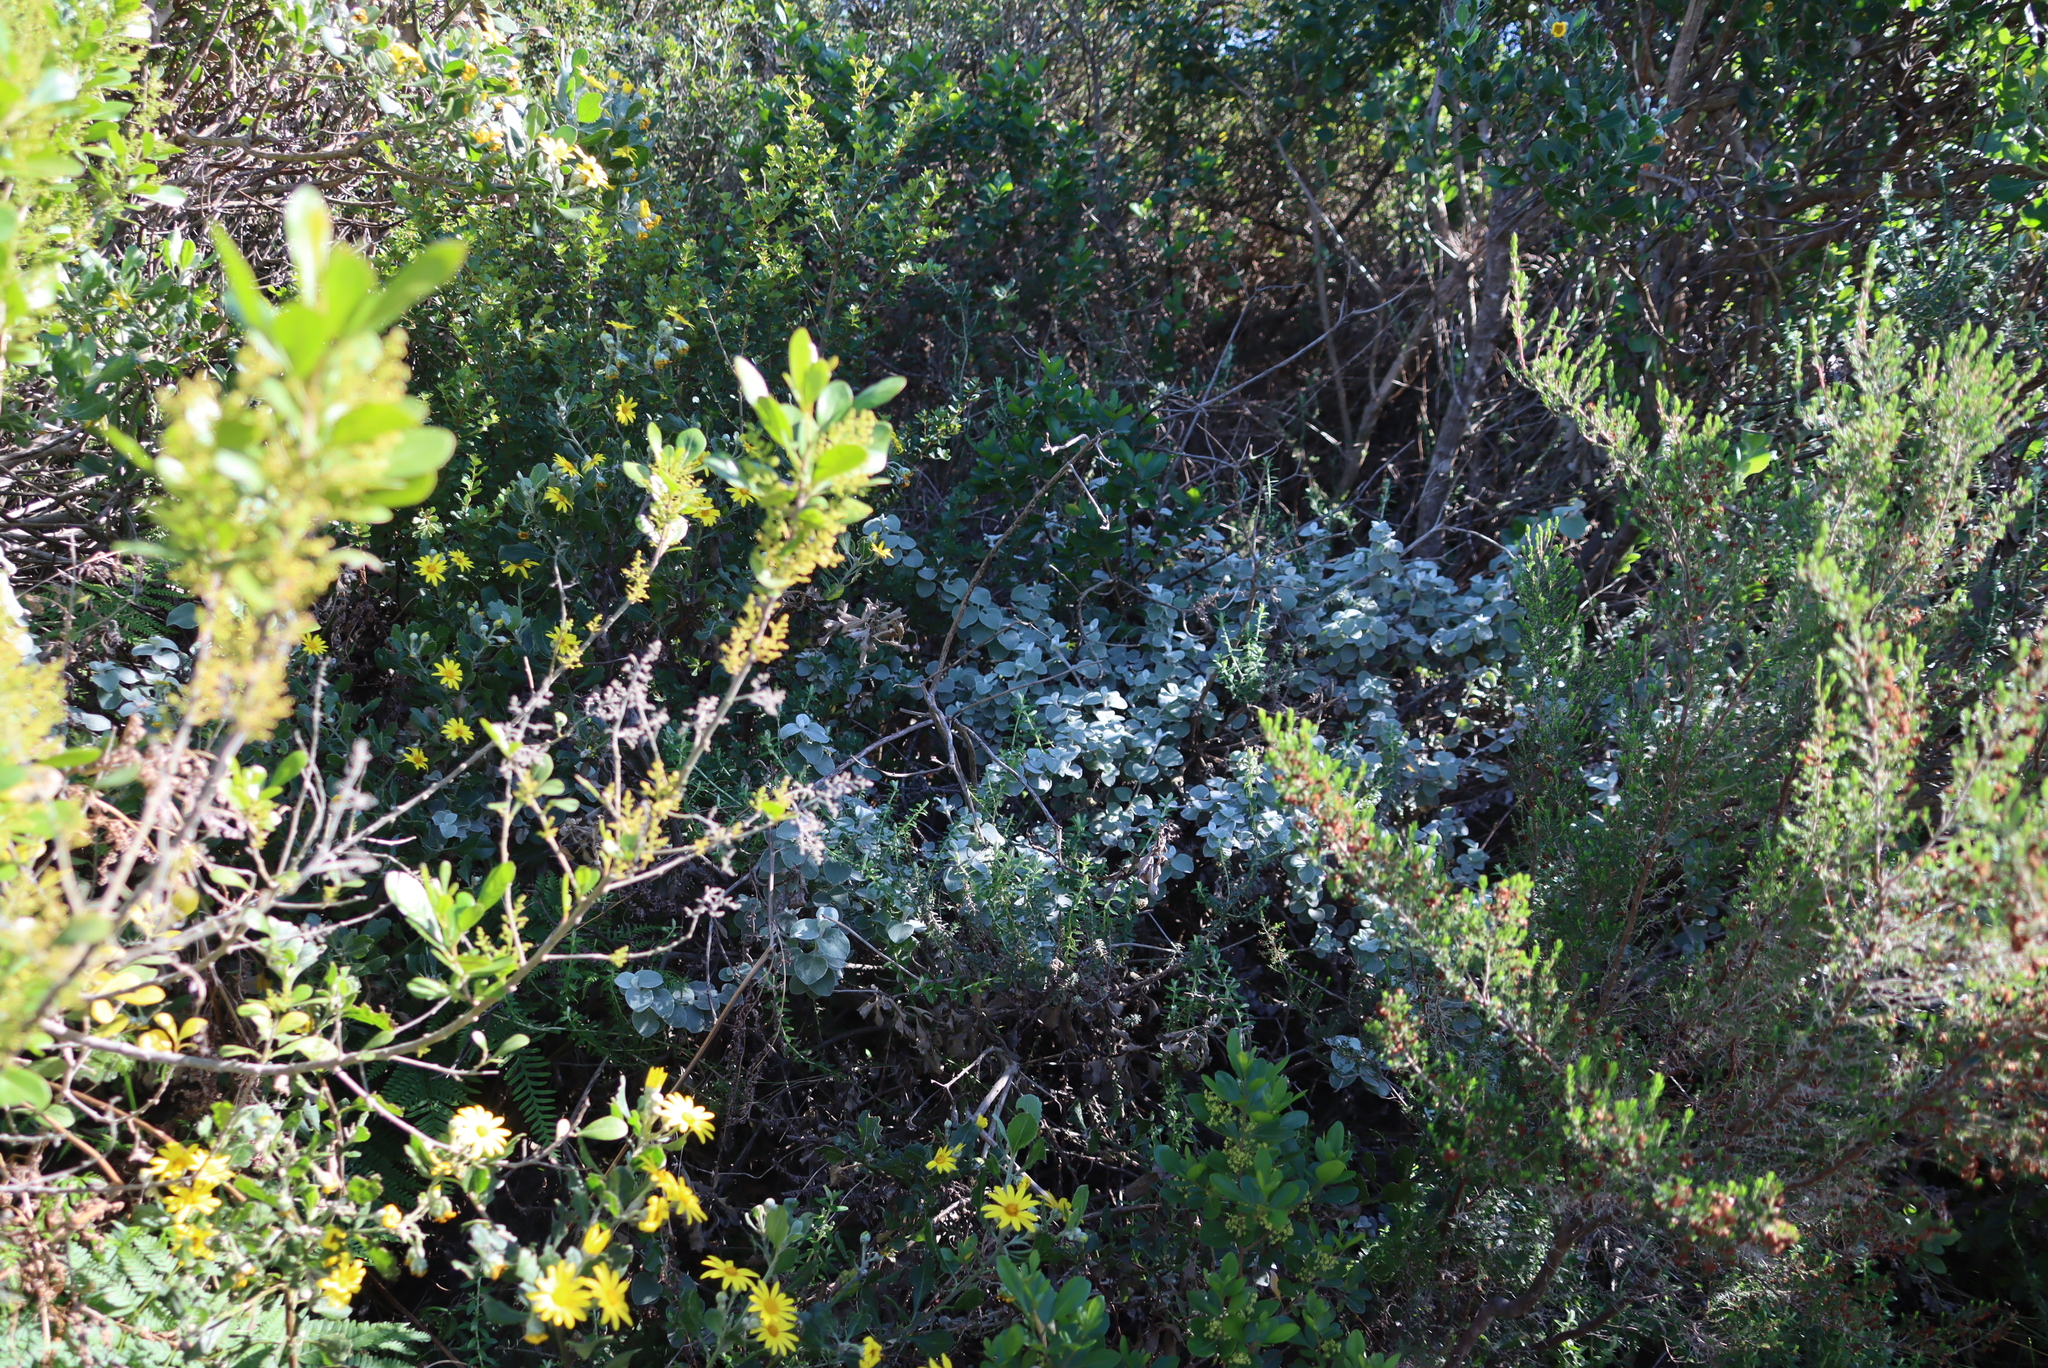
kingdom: Plantae
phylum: Tracheophyta
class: Magnoliopsida
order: Asterales
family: Asteraceae
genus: Helichrysum
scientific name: Helichrysum petiolare
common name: Licorice-plant
